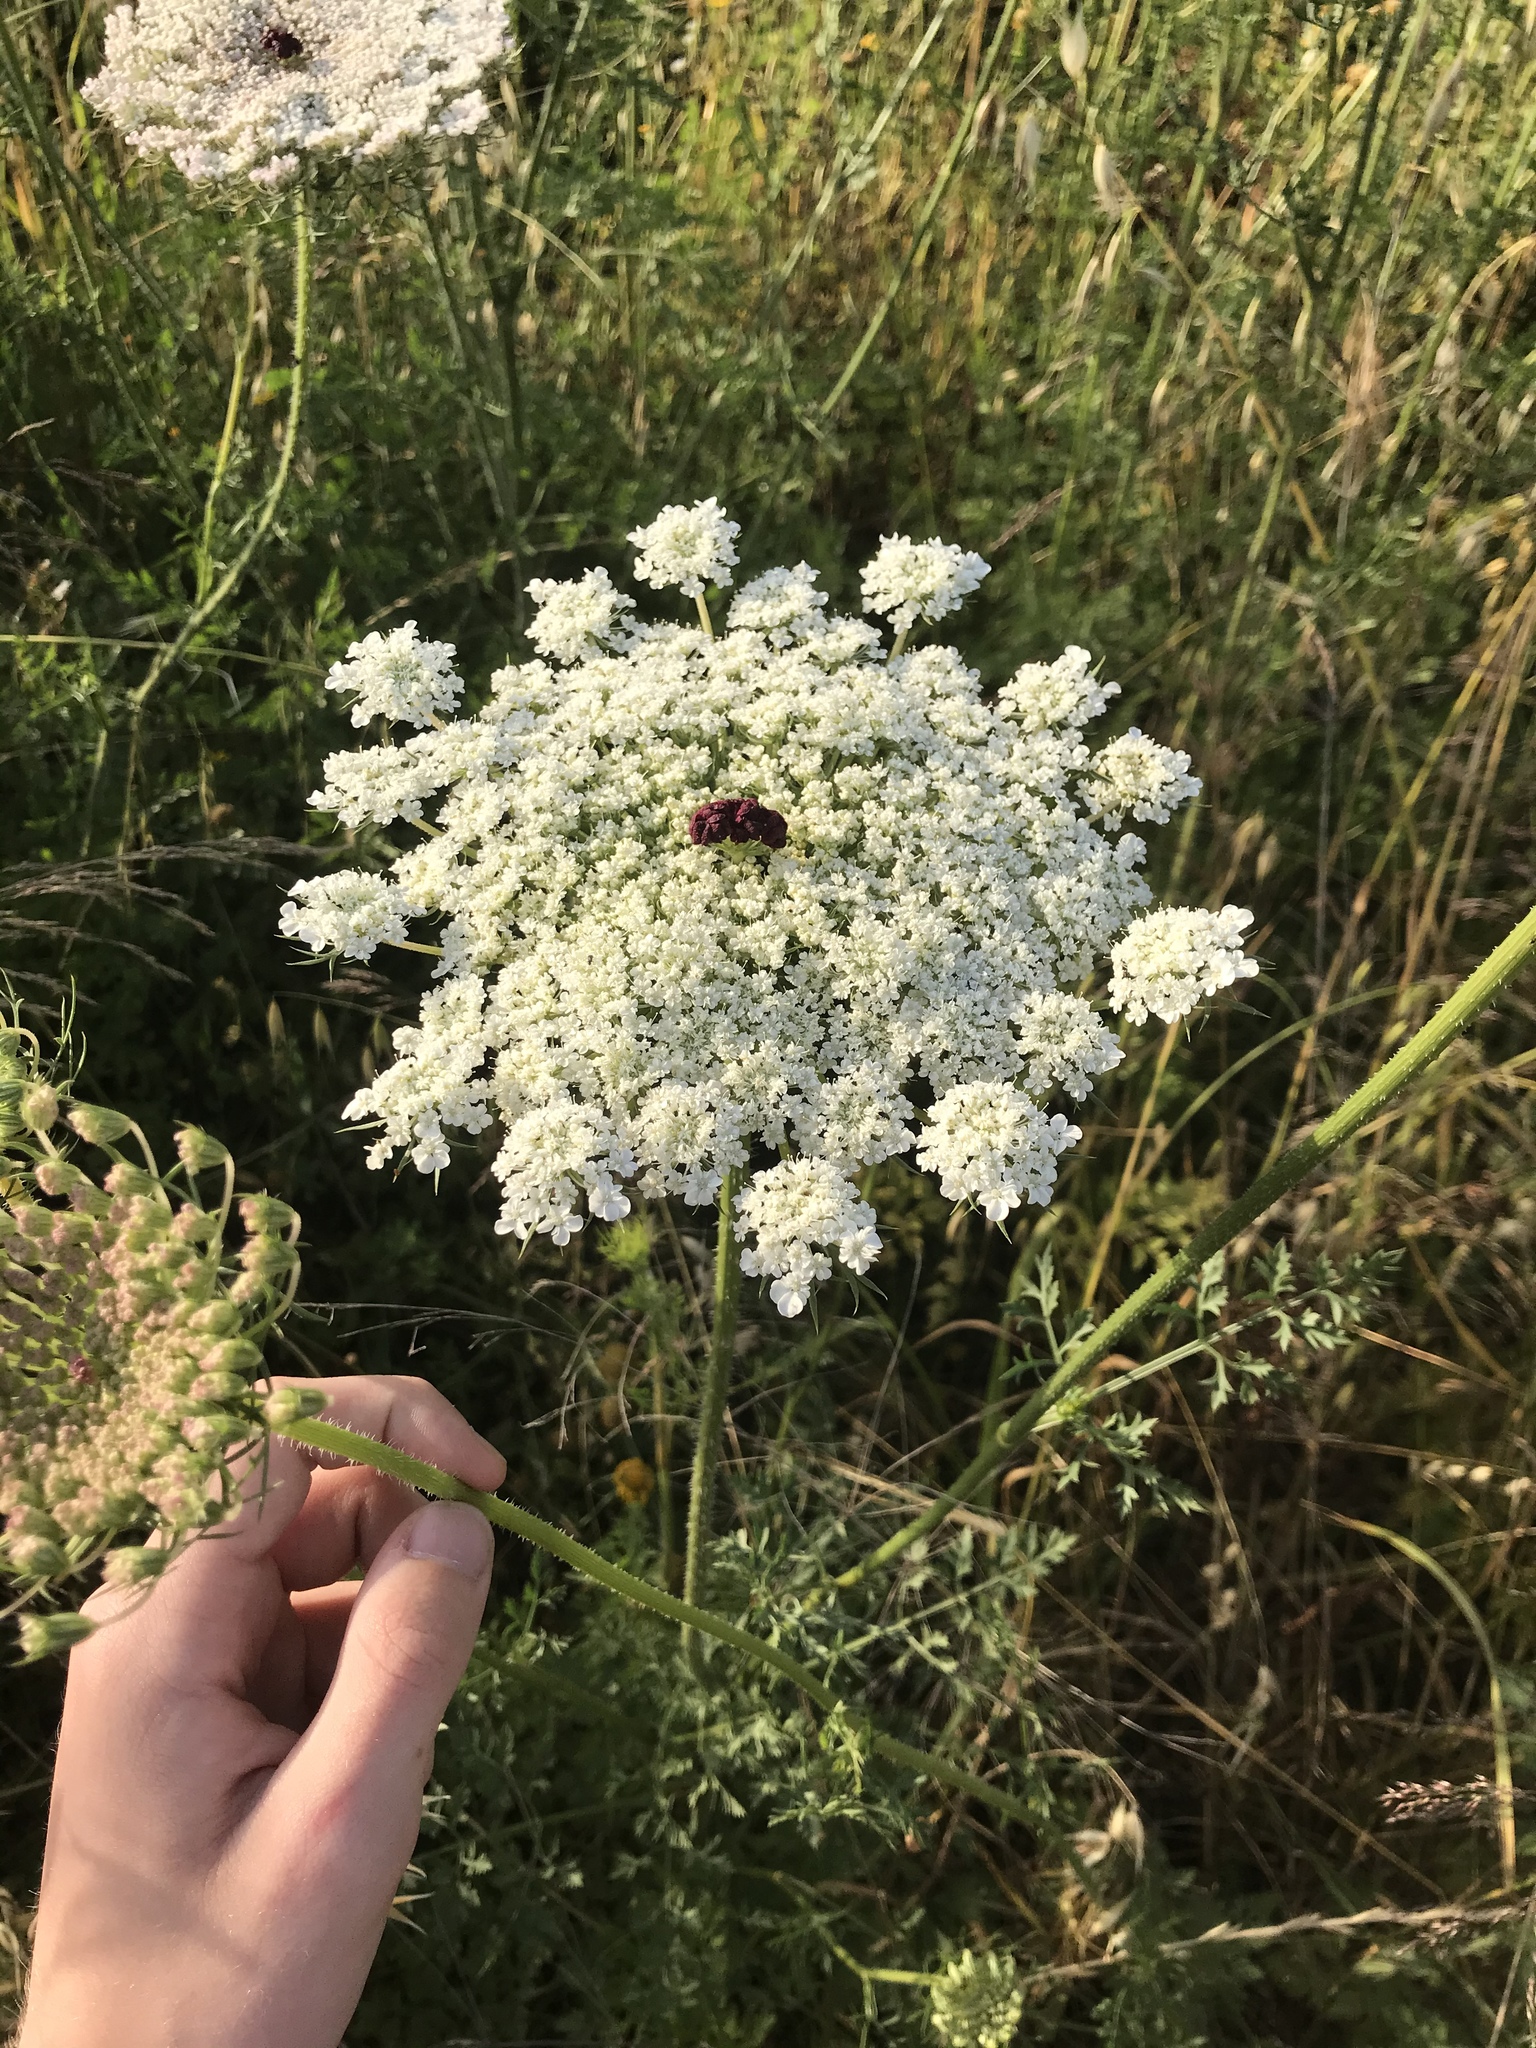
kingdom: Plantae
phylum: Tracheophyta
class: Magnoliopsida
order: Apiales
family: Apiaceae
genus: Daucus
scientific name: Daucus carota
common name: Wild carrot
